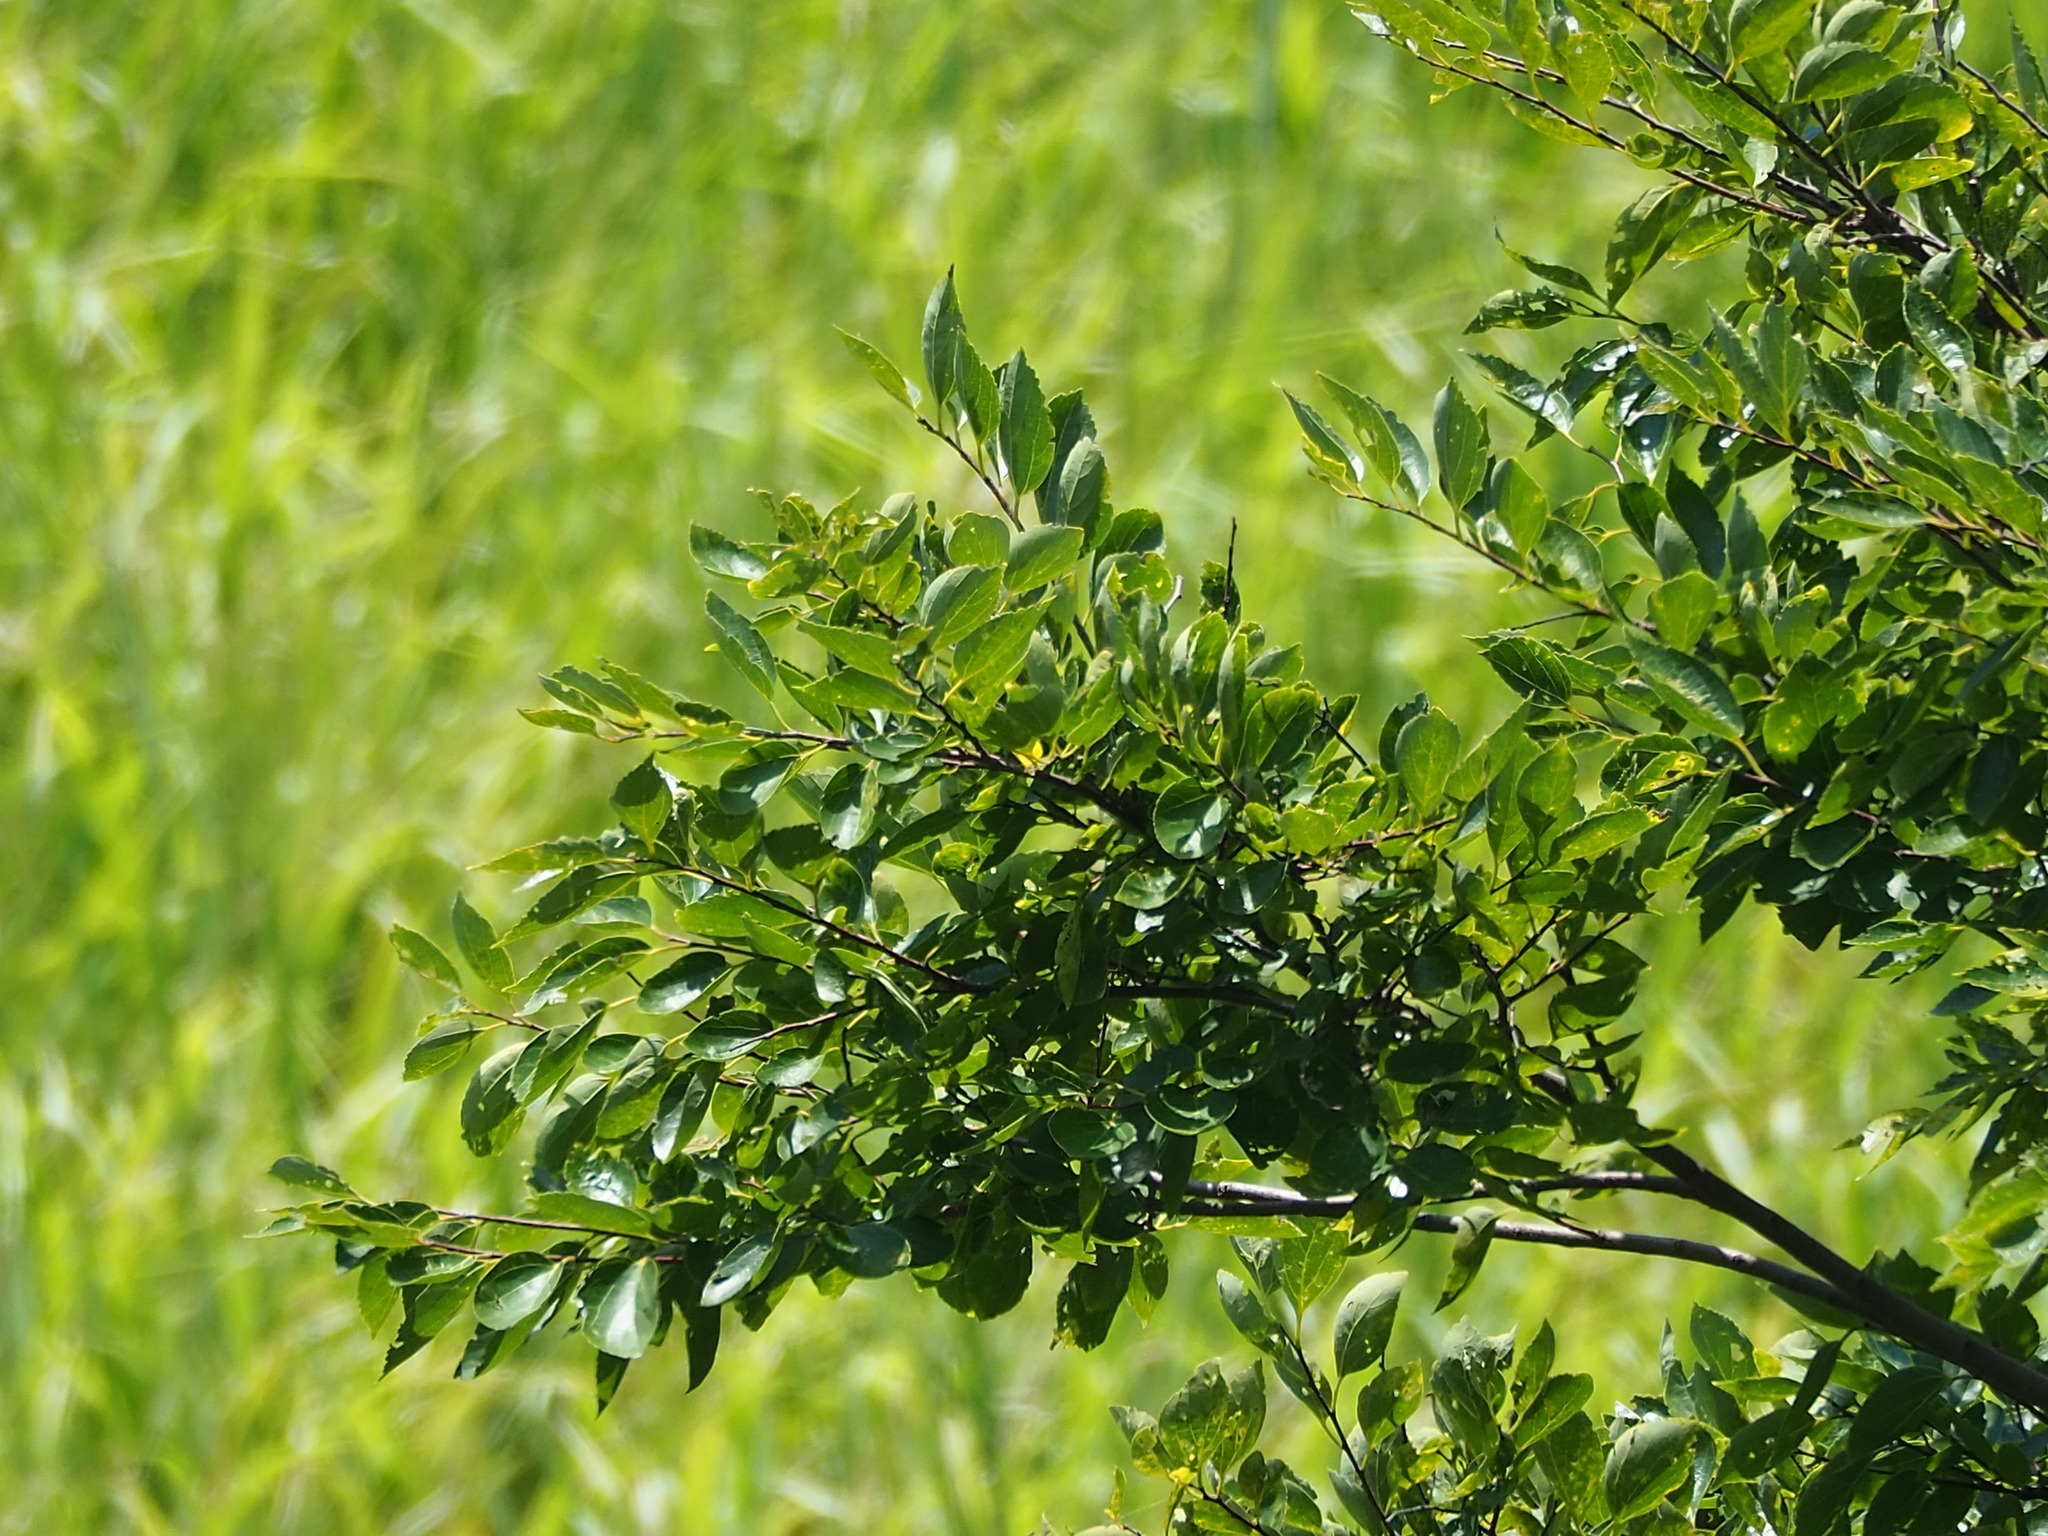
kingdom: Plantae
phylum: Tracheophyta
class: Magnoliopsida
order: Rosales
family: Cannabaceae
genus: Celtis
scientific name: Celtis sinensis
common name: Chinese hackberry
